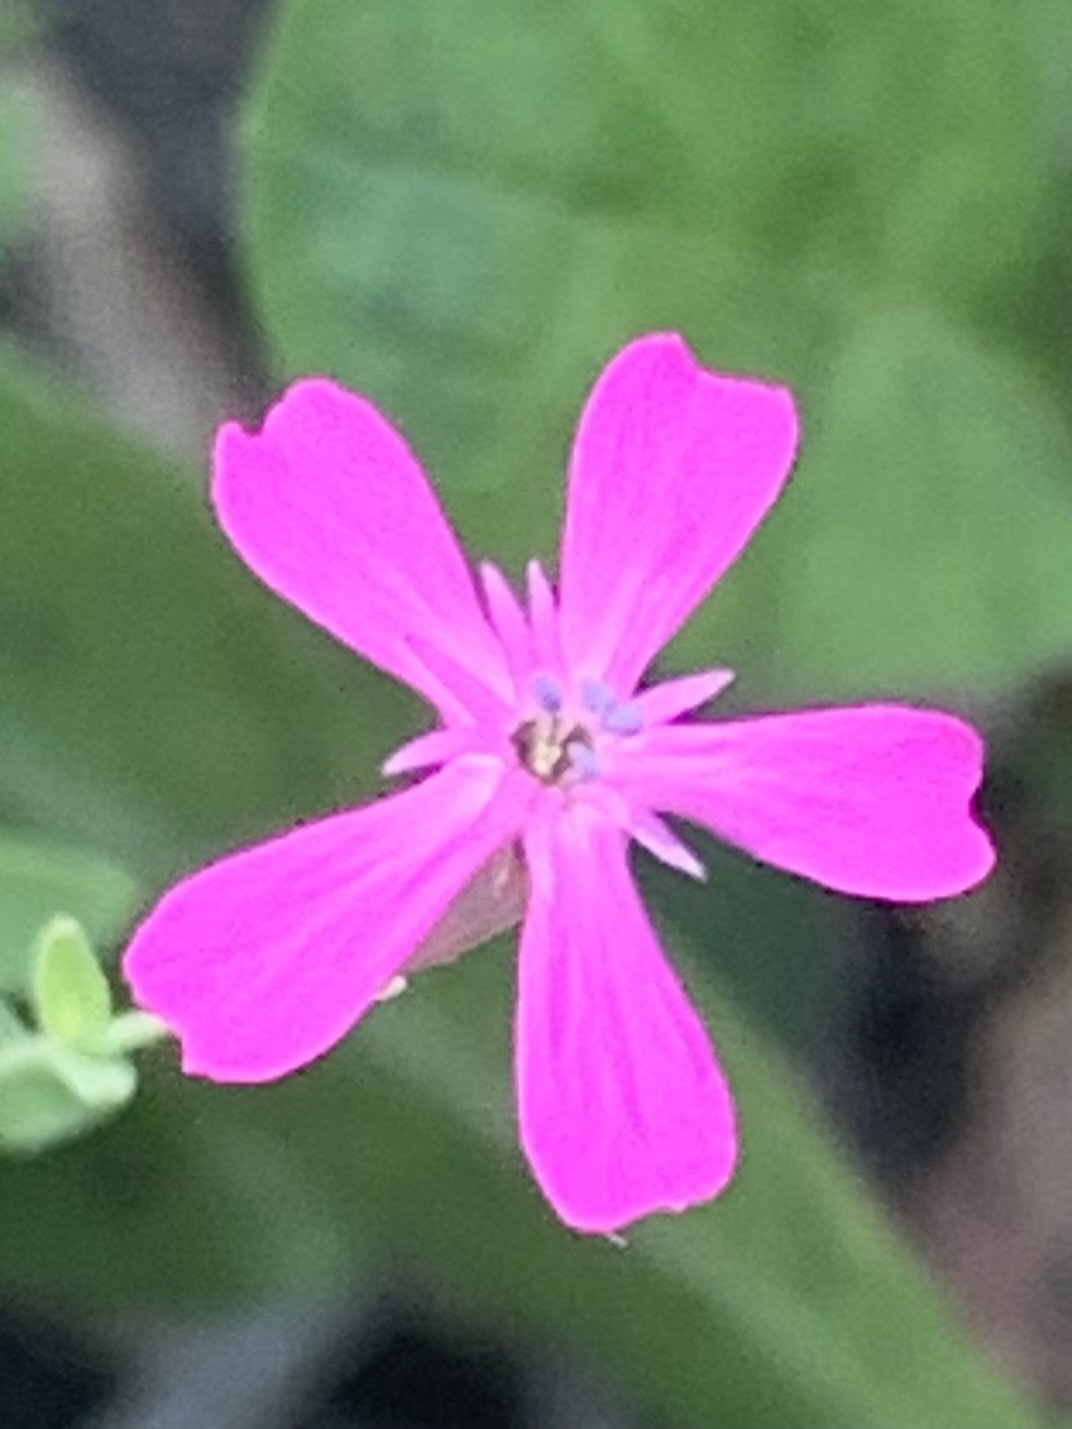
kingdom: Plantae
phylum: Tracheophyta
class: Magnoliopsida
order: Caryophyllales
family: Caryophyllaceae
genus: Atocion
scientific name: Atocion armeria
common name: Sweet william catchfly
